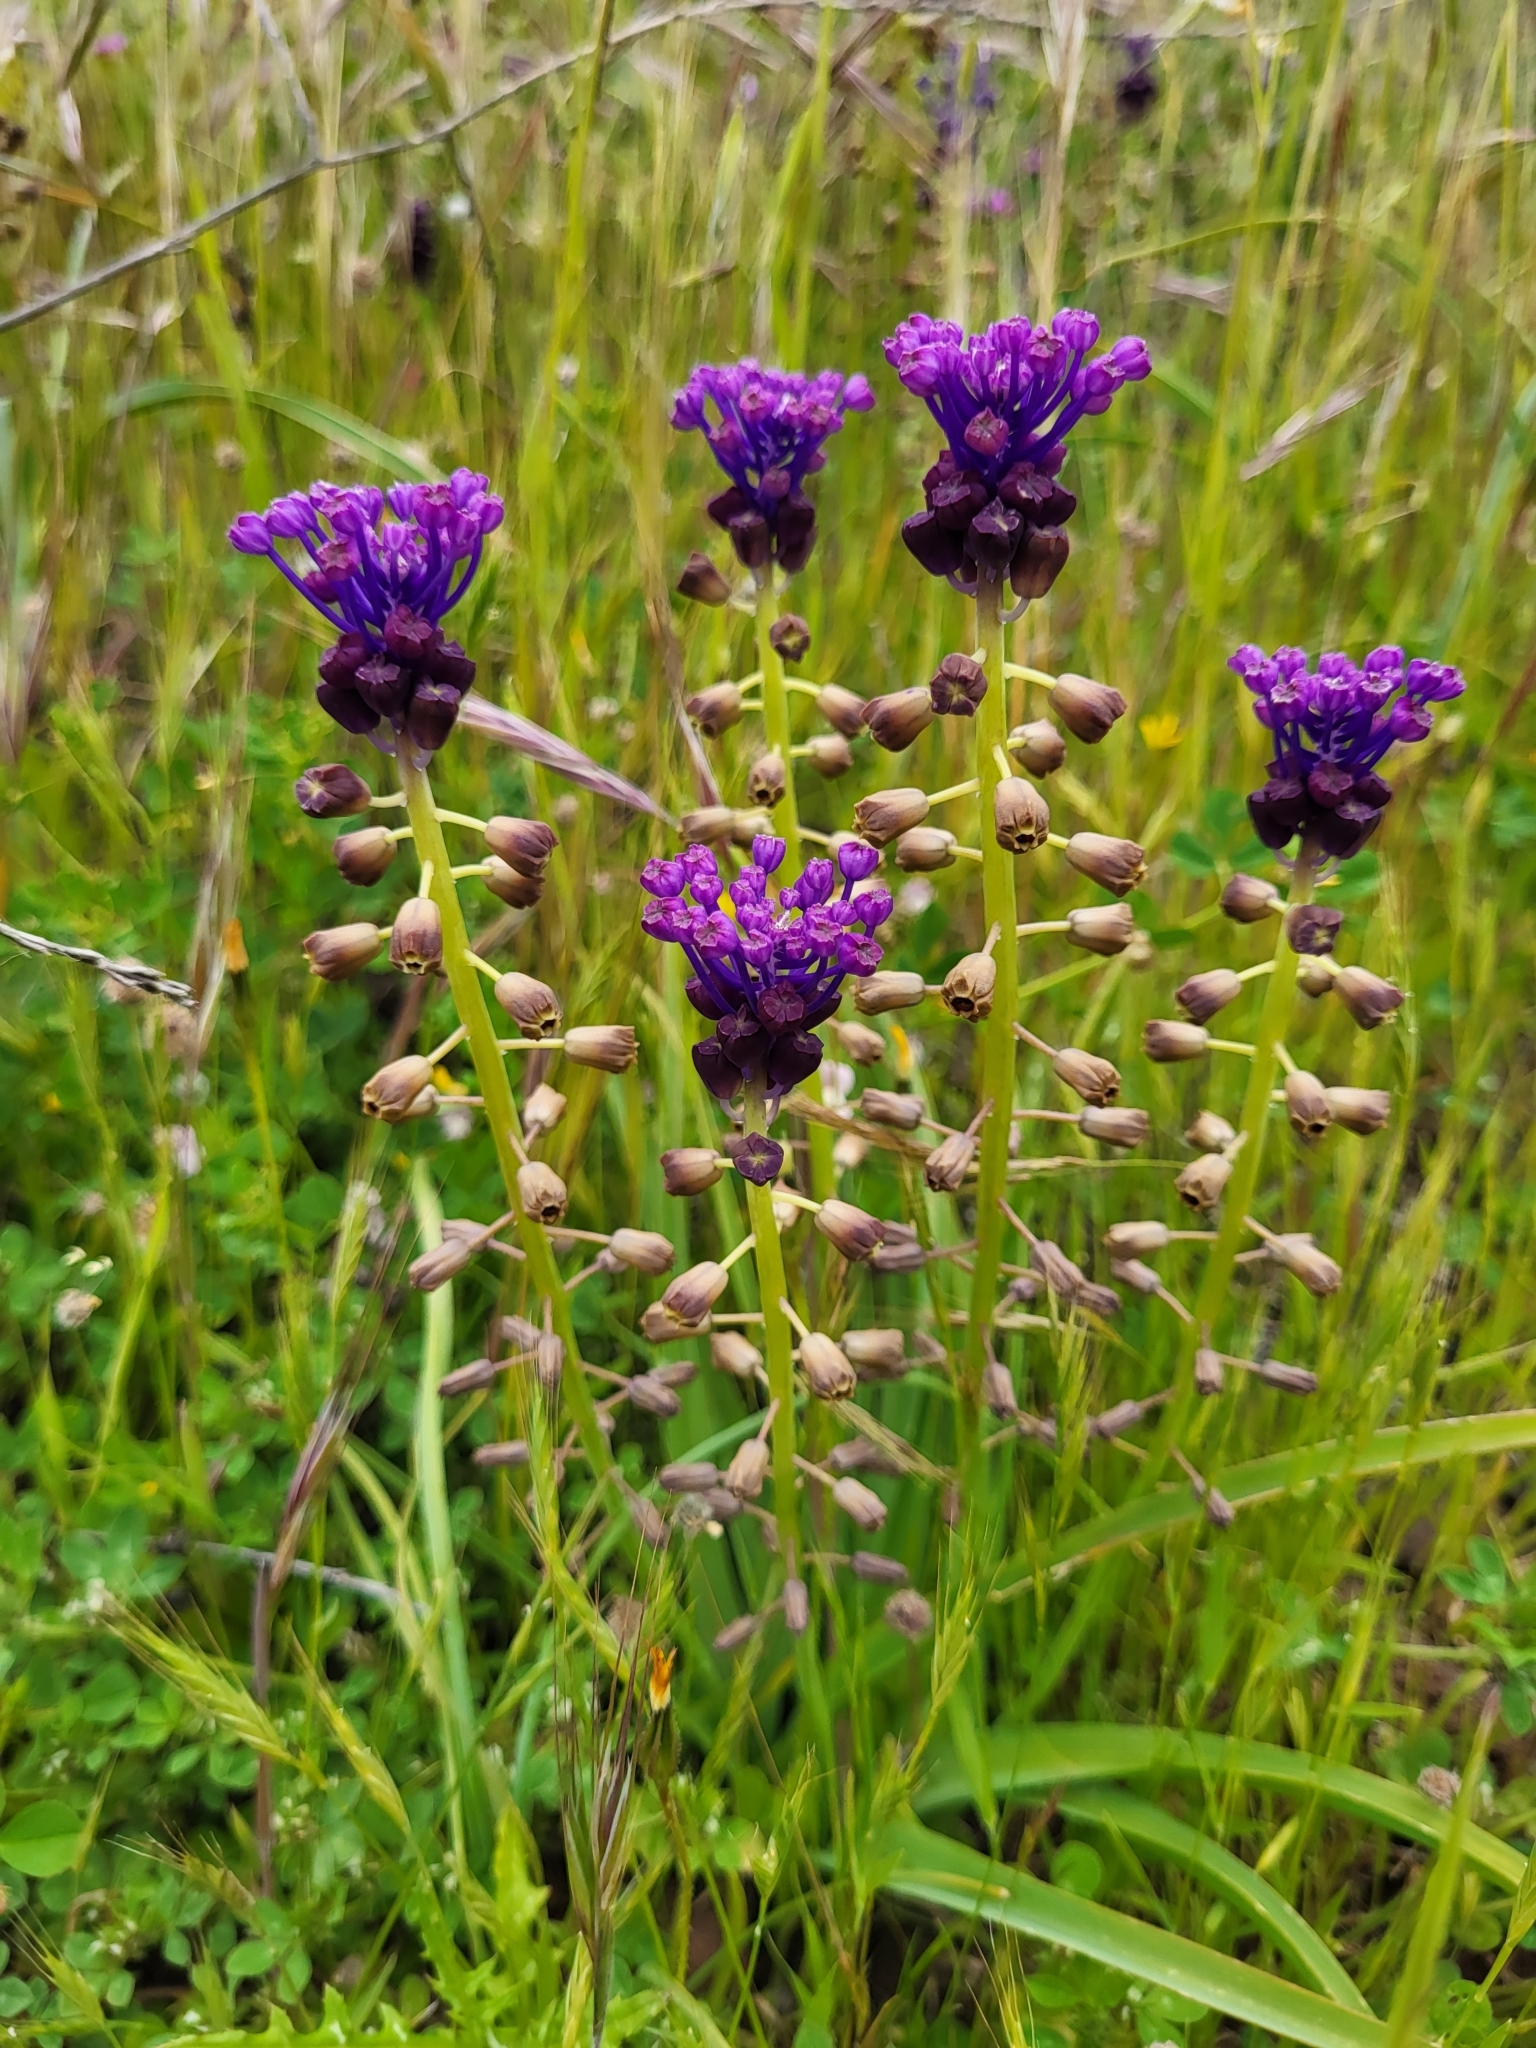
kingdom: Plantae
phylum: Tracheophyta
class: Liliopsida
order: Asparagales
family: Asparagaceae
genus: Muscari
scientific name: Muscari comosum
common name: Tassel hyacinth
